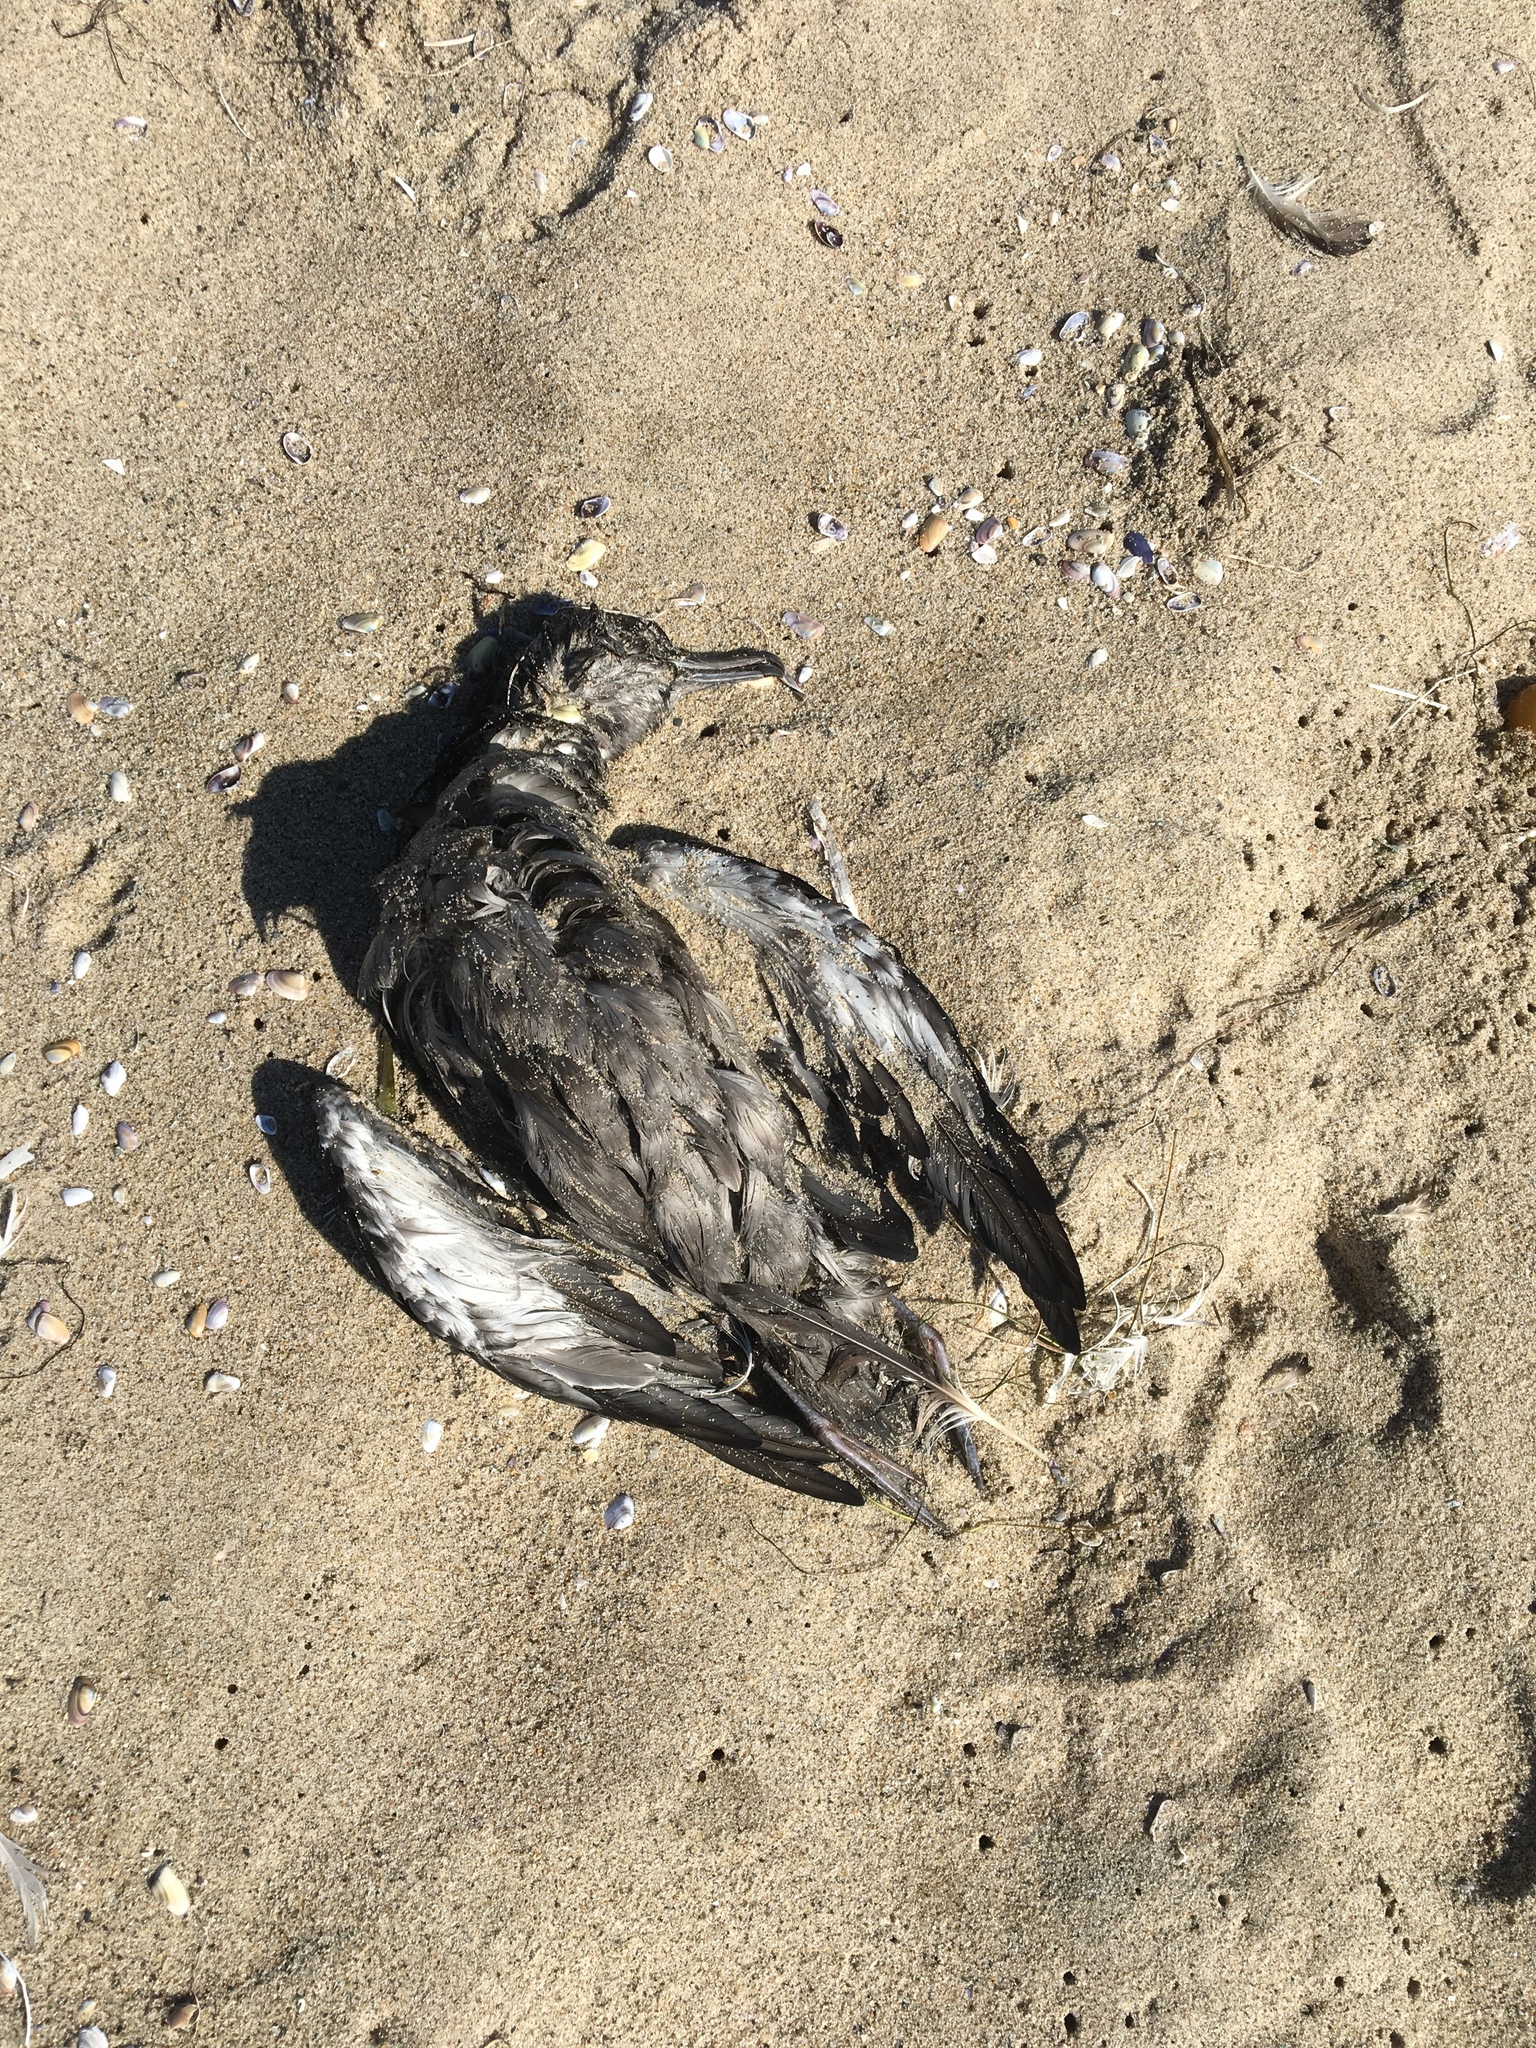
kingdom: Animalia
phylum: Chordata
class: Aves
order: Procellariiformes
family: Procellariidae
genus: Puffinus
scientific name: Puffinus griseus
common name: Sooty shearwater
